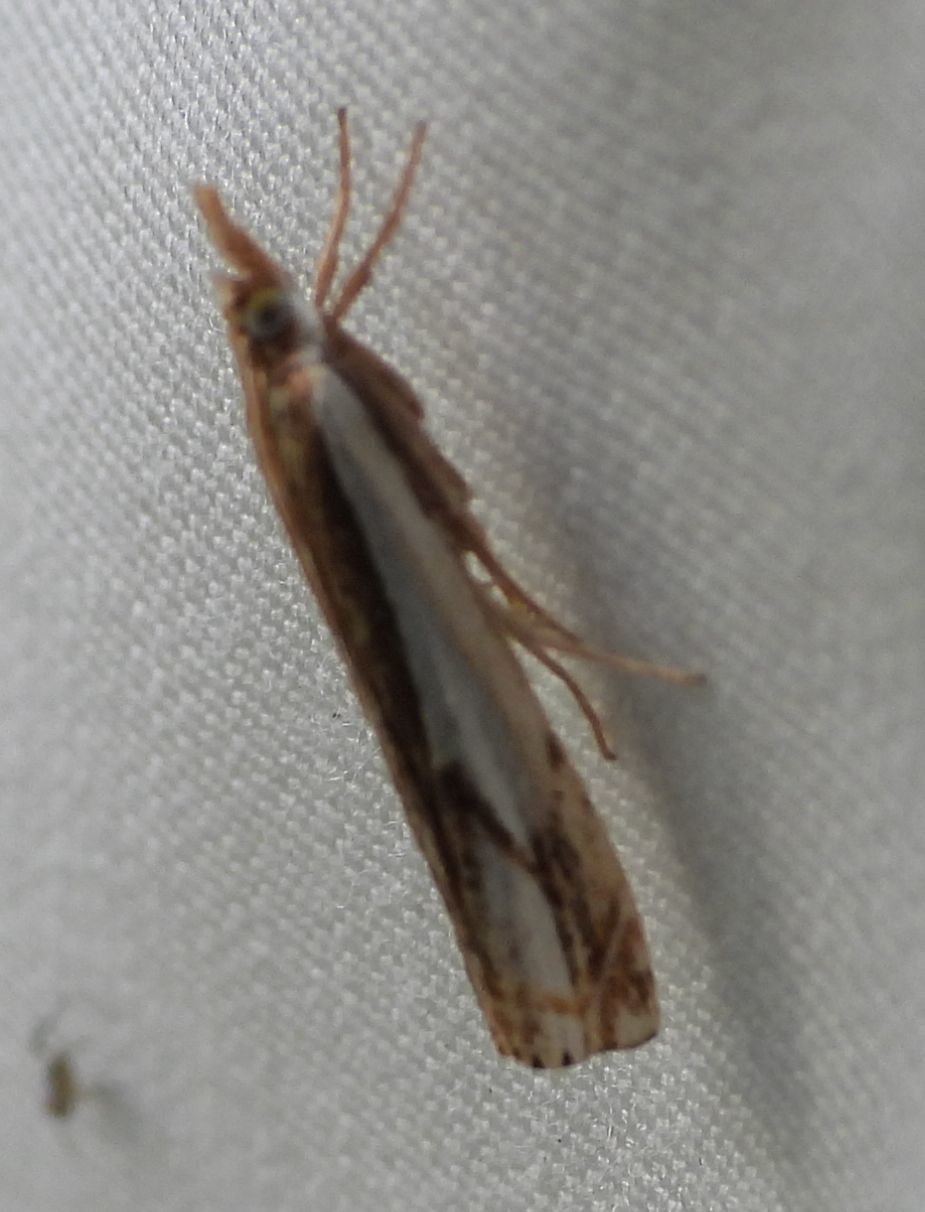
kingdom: Animalia
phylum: Arthropoda
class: Insecta
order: Lepidoptera
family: Crambidae
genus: Crambus
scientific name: Crambus agitatellus
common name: Double-banded grass-veneer
